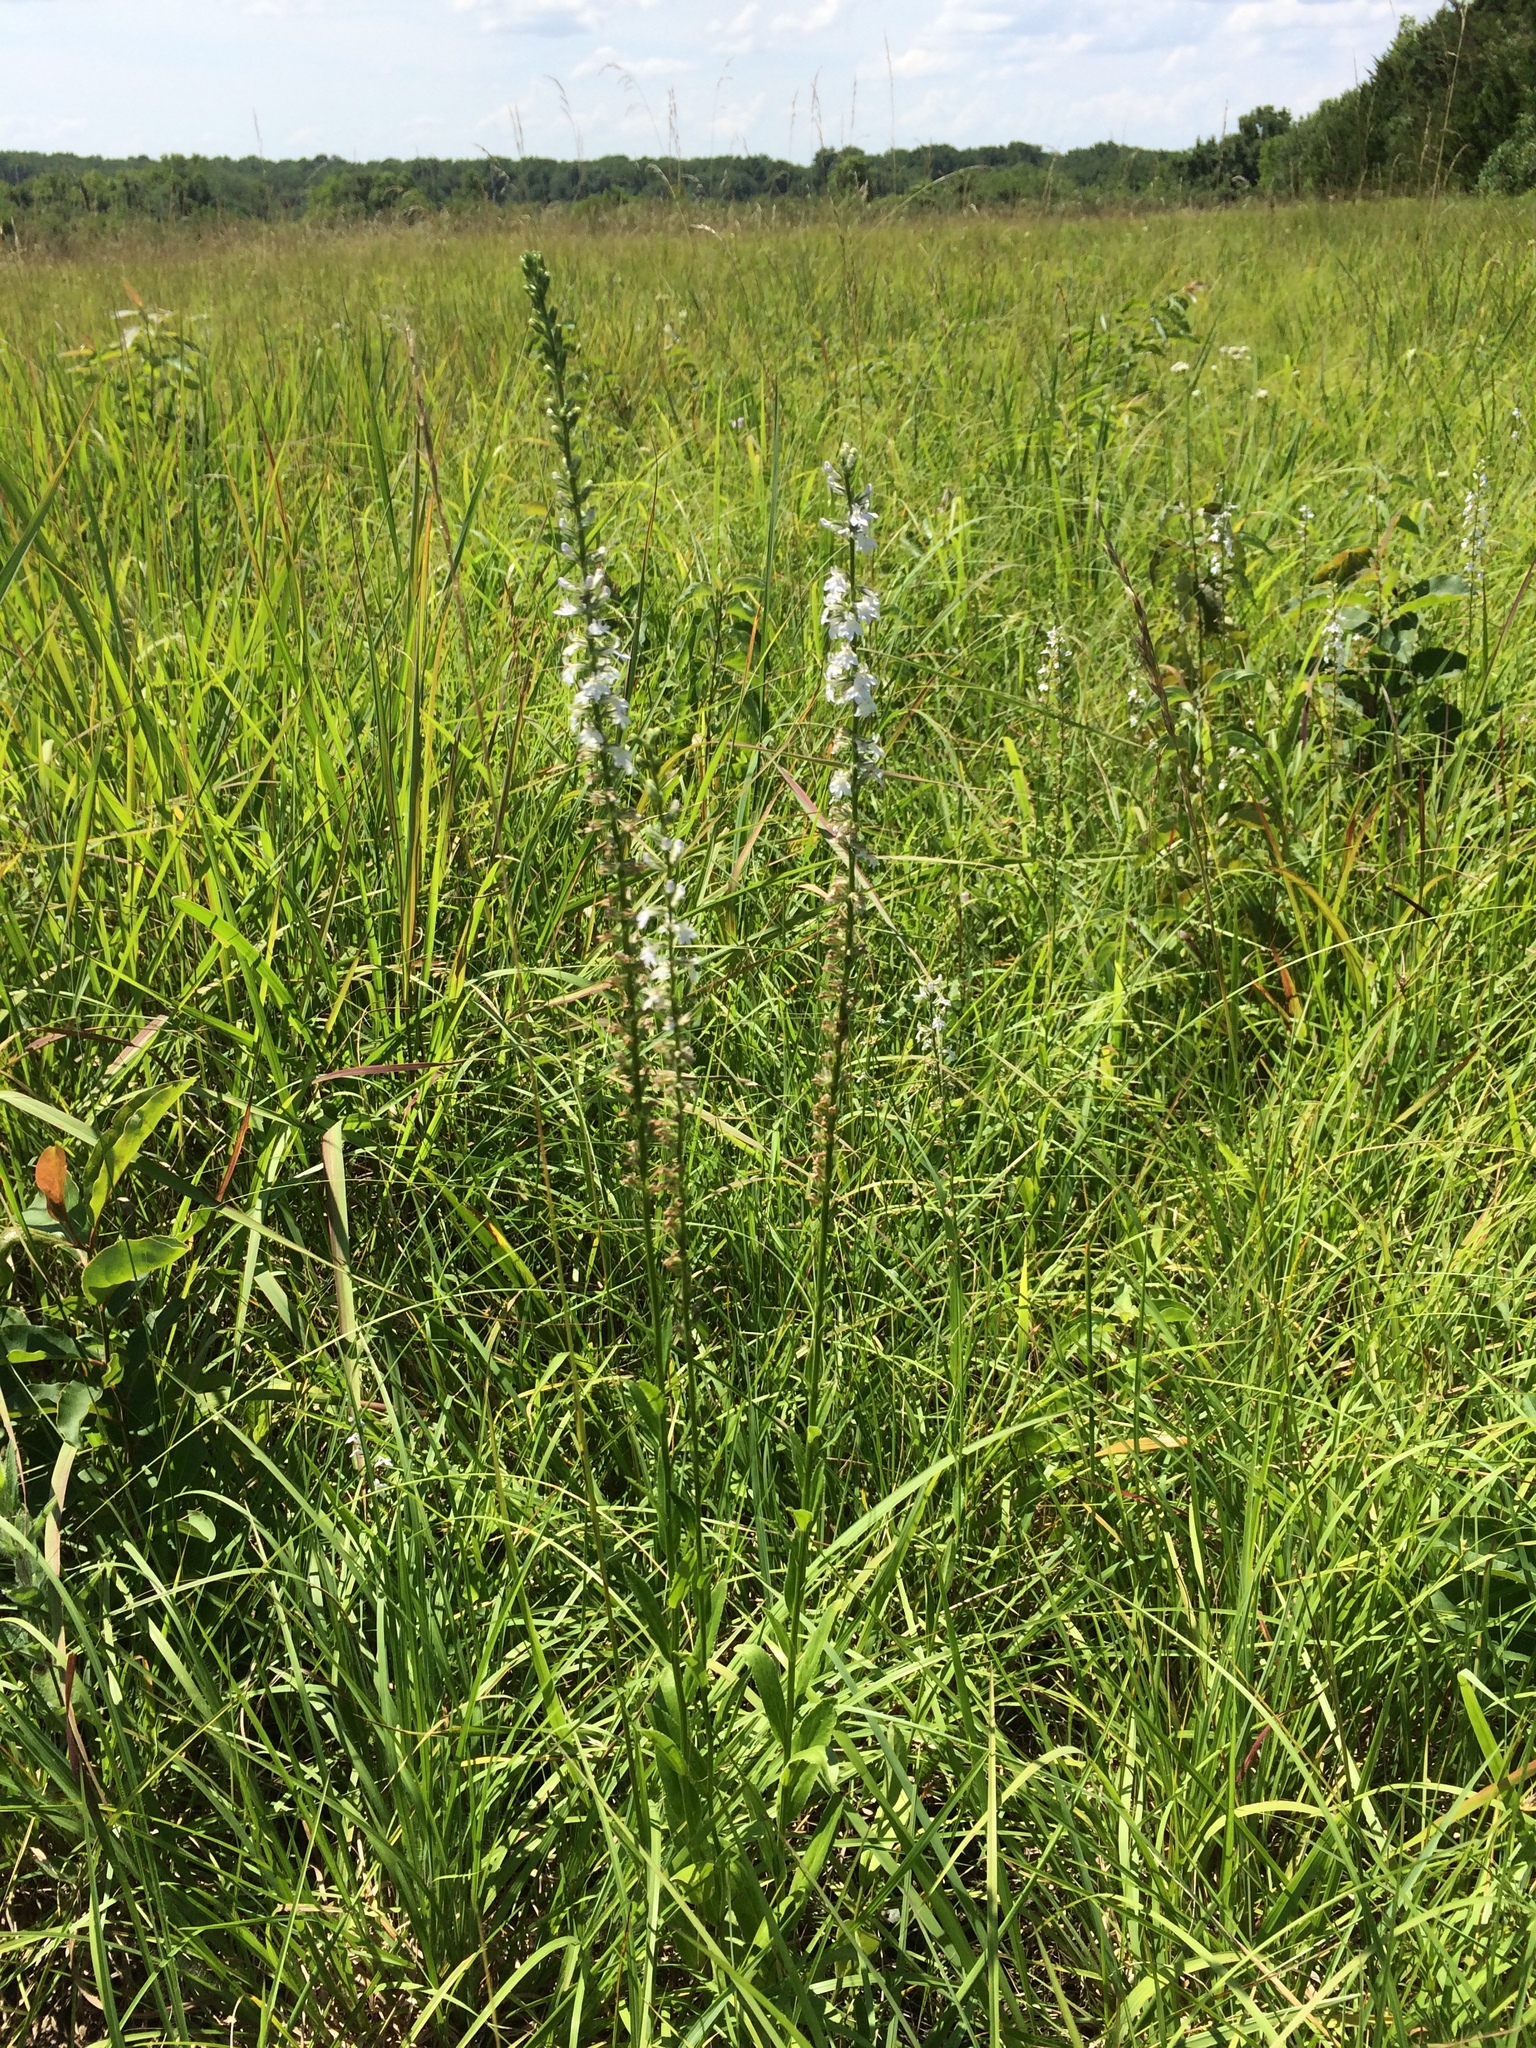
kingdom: Plantae
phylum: Tracheophyta
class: Magnoliopsida
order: Asterales
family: Campanulaceae
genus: Lobelia
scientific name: Lobelia spicata
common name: Pale-spike lobelia
